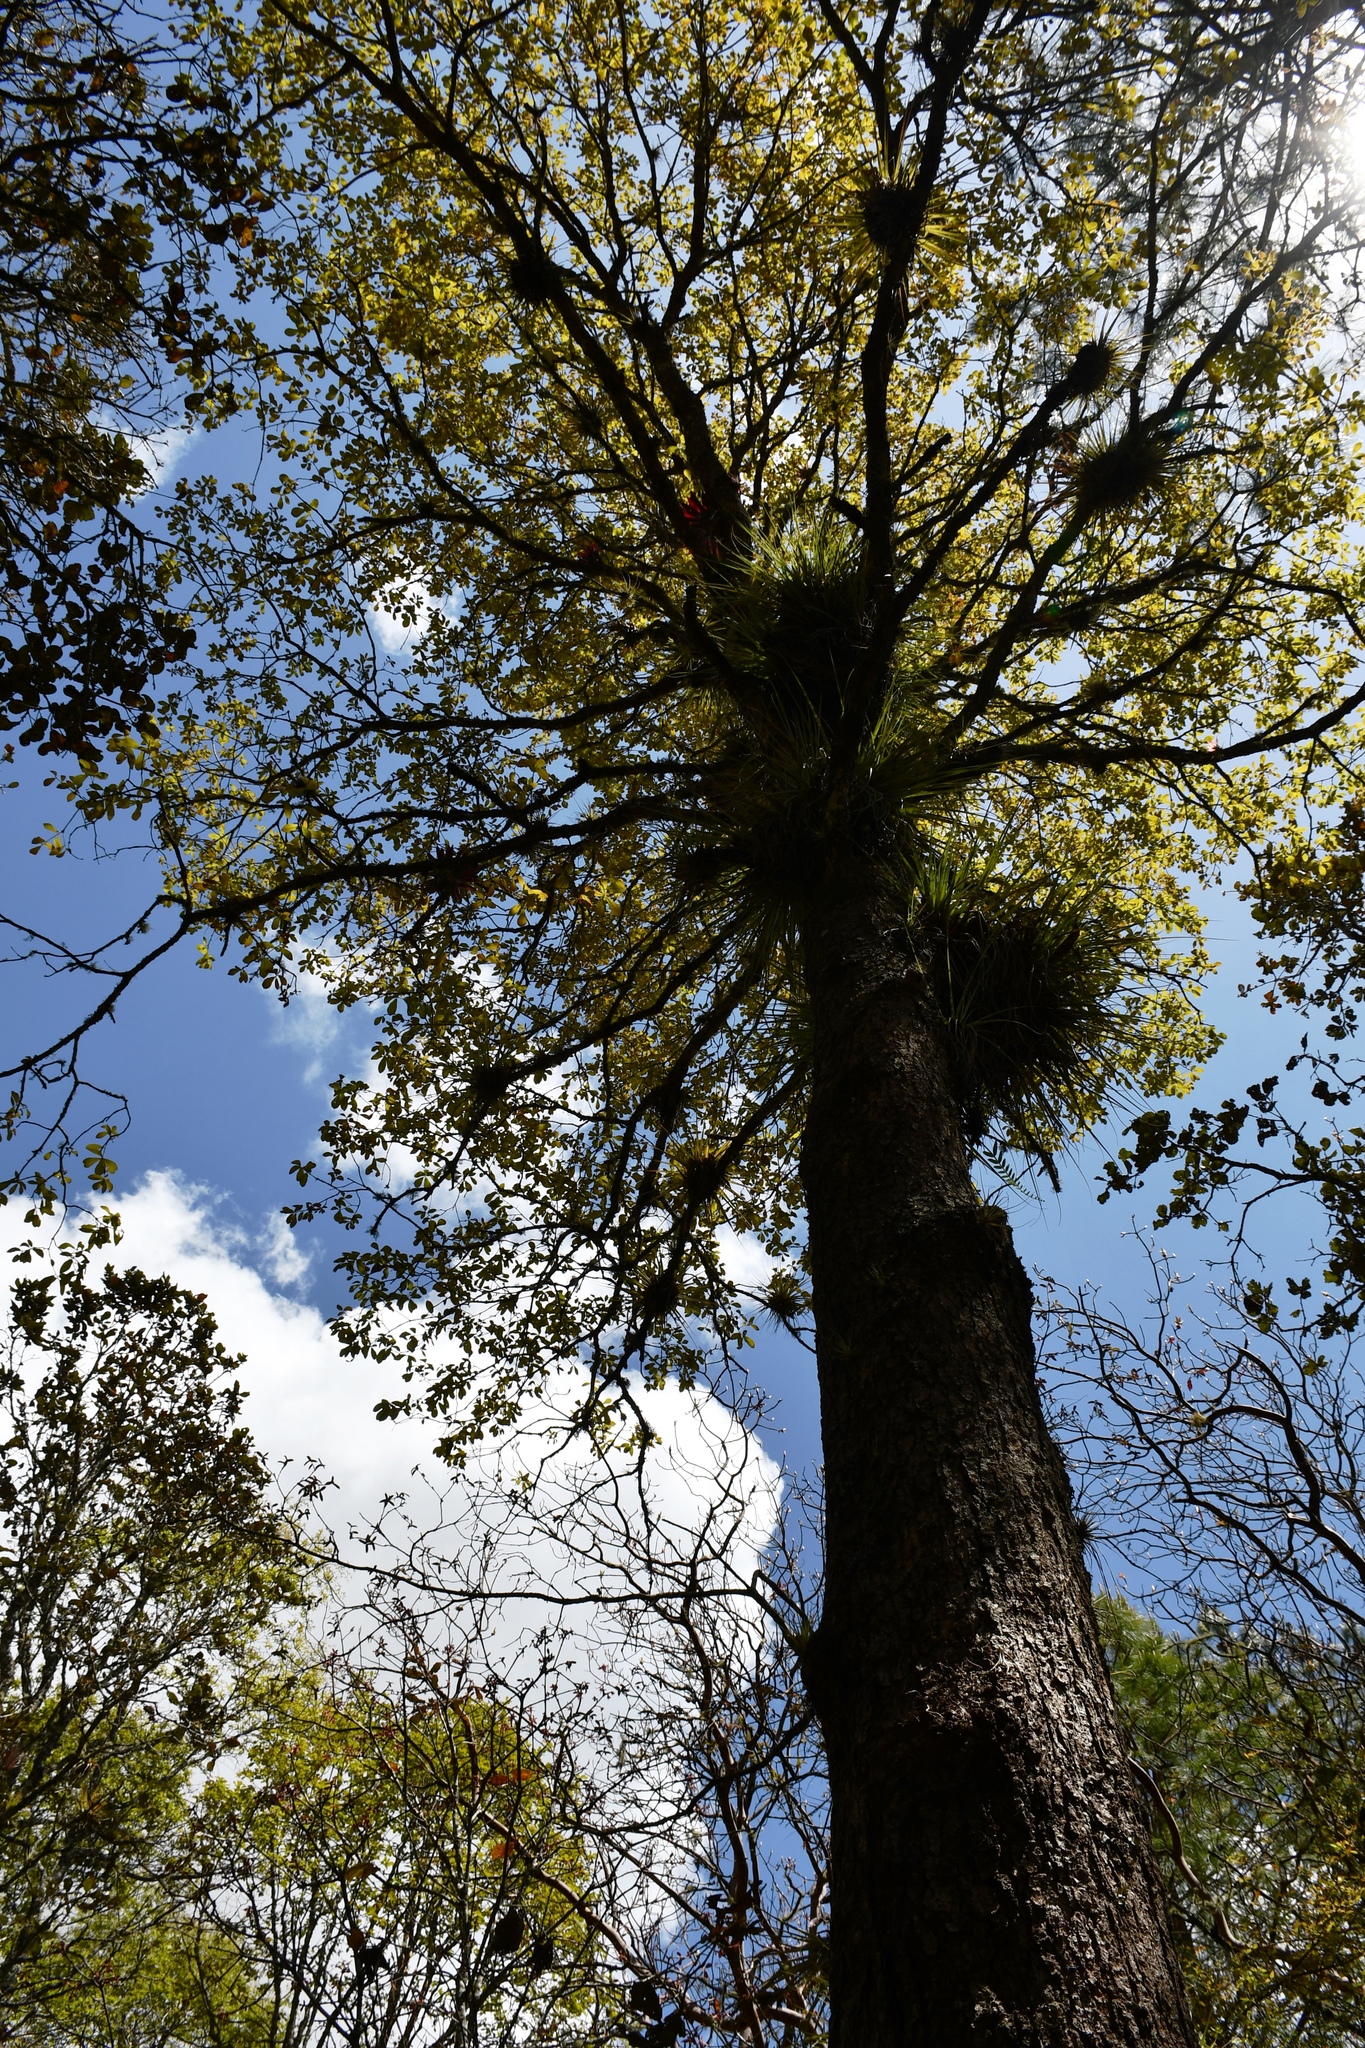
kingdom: Plantae
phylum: Tracheophyta
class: Magnoliopsida
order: Fagales
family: Fagaceae
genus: Quercus
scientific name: Quercus segoviensis
